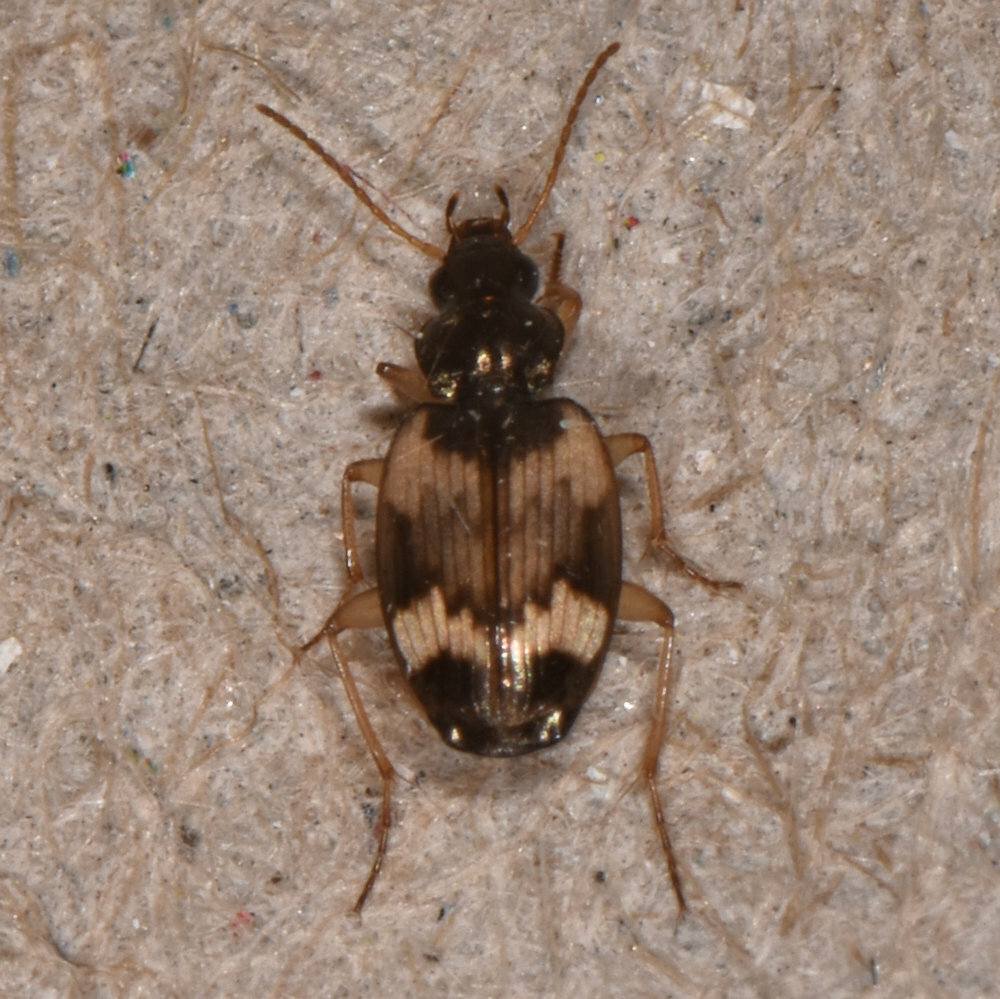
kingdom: Animalia
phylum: Arthropoda
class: Insecta
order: Coleoptera
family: Carabidae
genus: Tetragonoderus
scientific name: Tetragonoderus fasciatus
